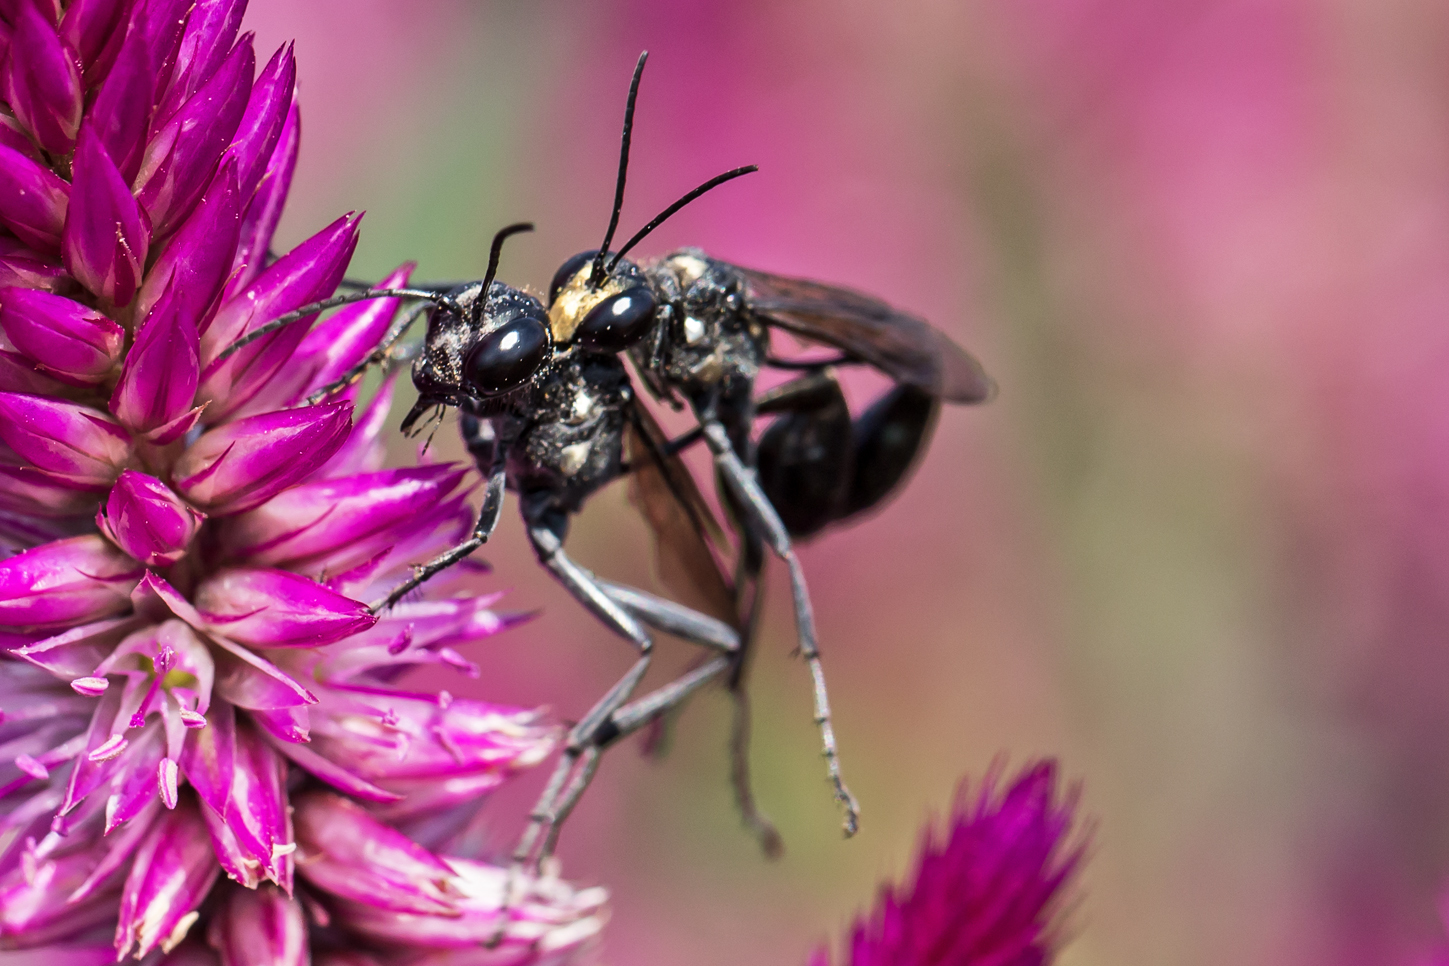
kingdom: Animalia
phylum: Arthropoda
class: Insecta
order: Hymenoptera
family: Sphecidae
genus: Eremnophila
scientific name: Eremnophila aureonotata
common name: Gold-marked thread-waisted wasp
